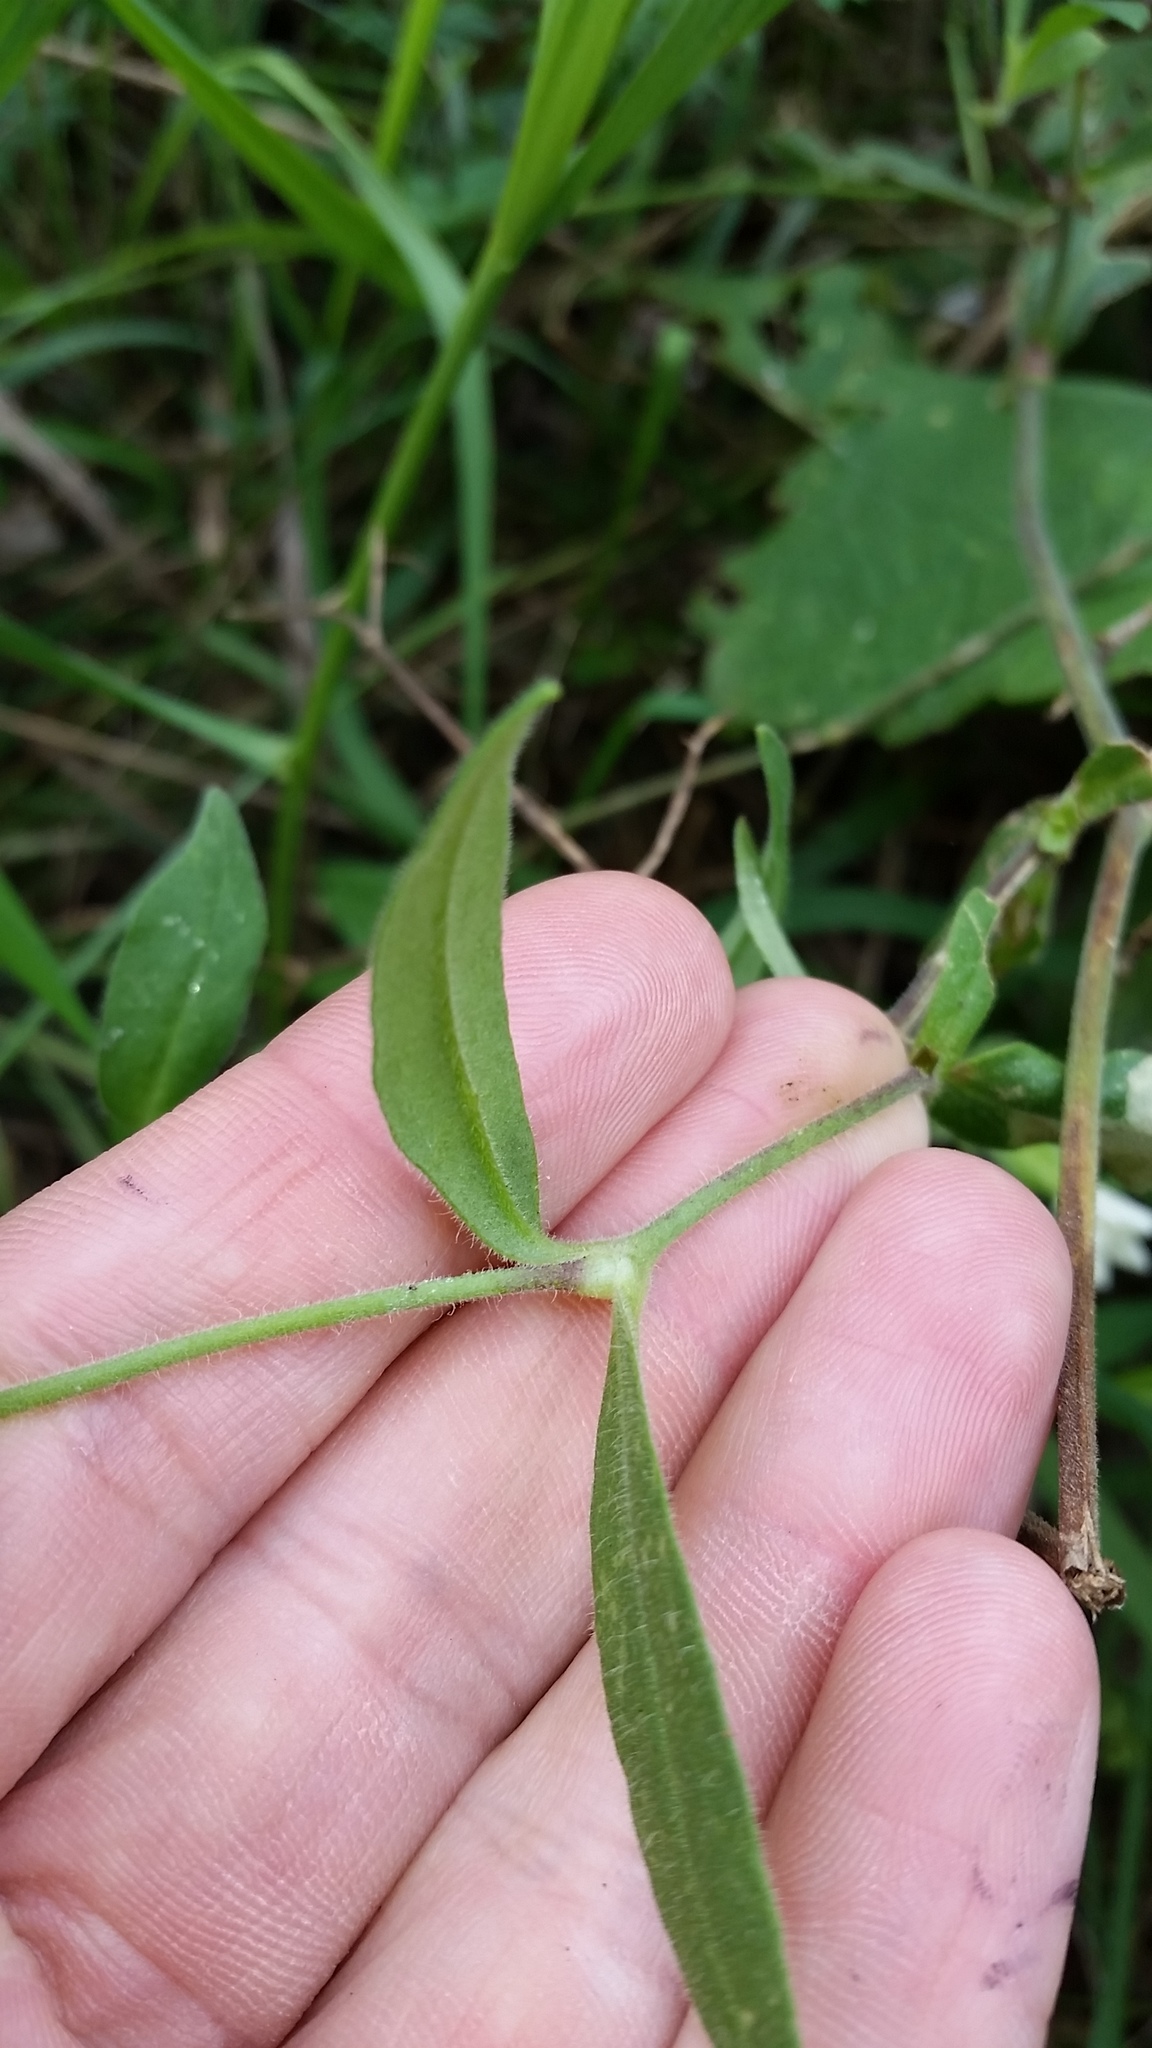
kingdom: Plantae
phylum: Tracheophyta
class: Magnoliopsida
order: Caryophyllales
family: Caryophyllaceae
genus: Silene
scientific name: Silene latifolia
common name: White campion
